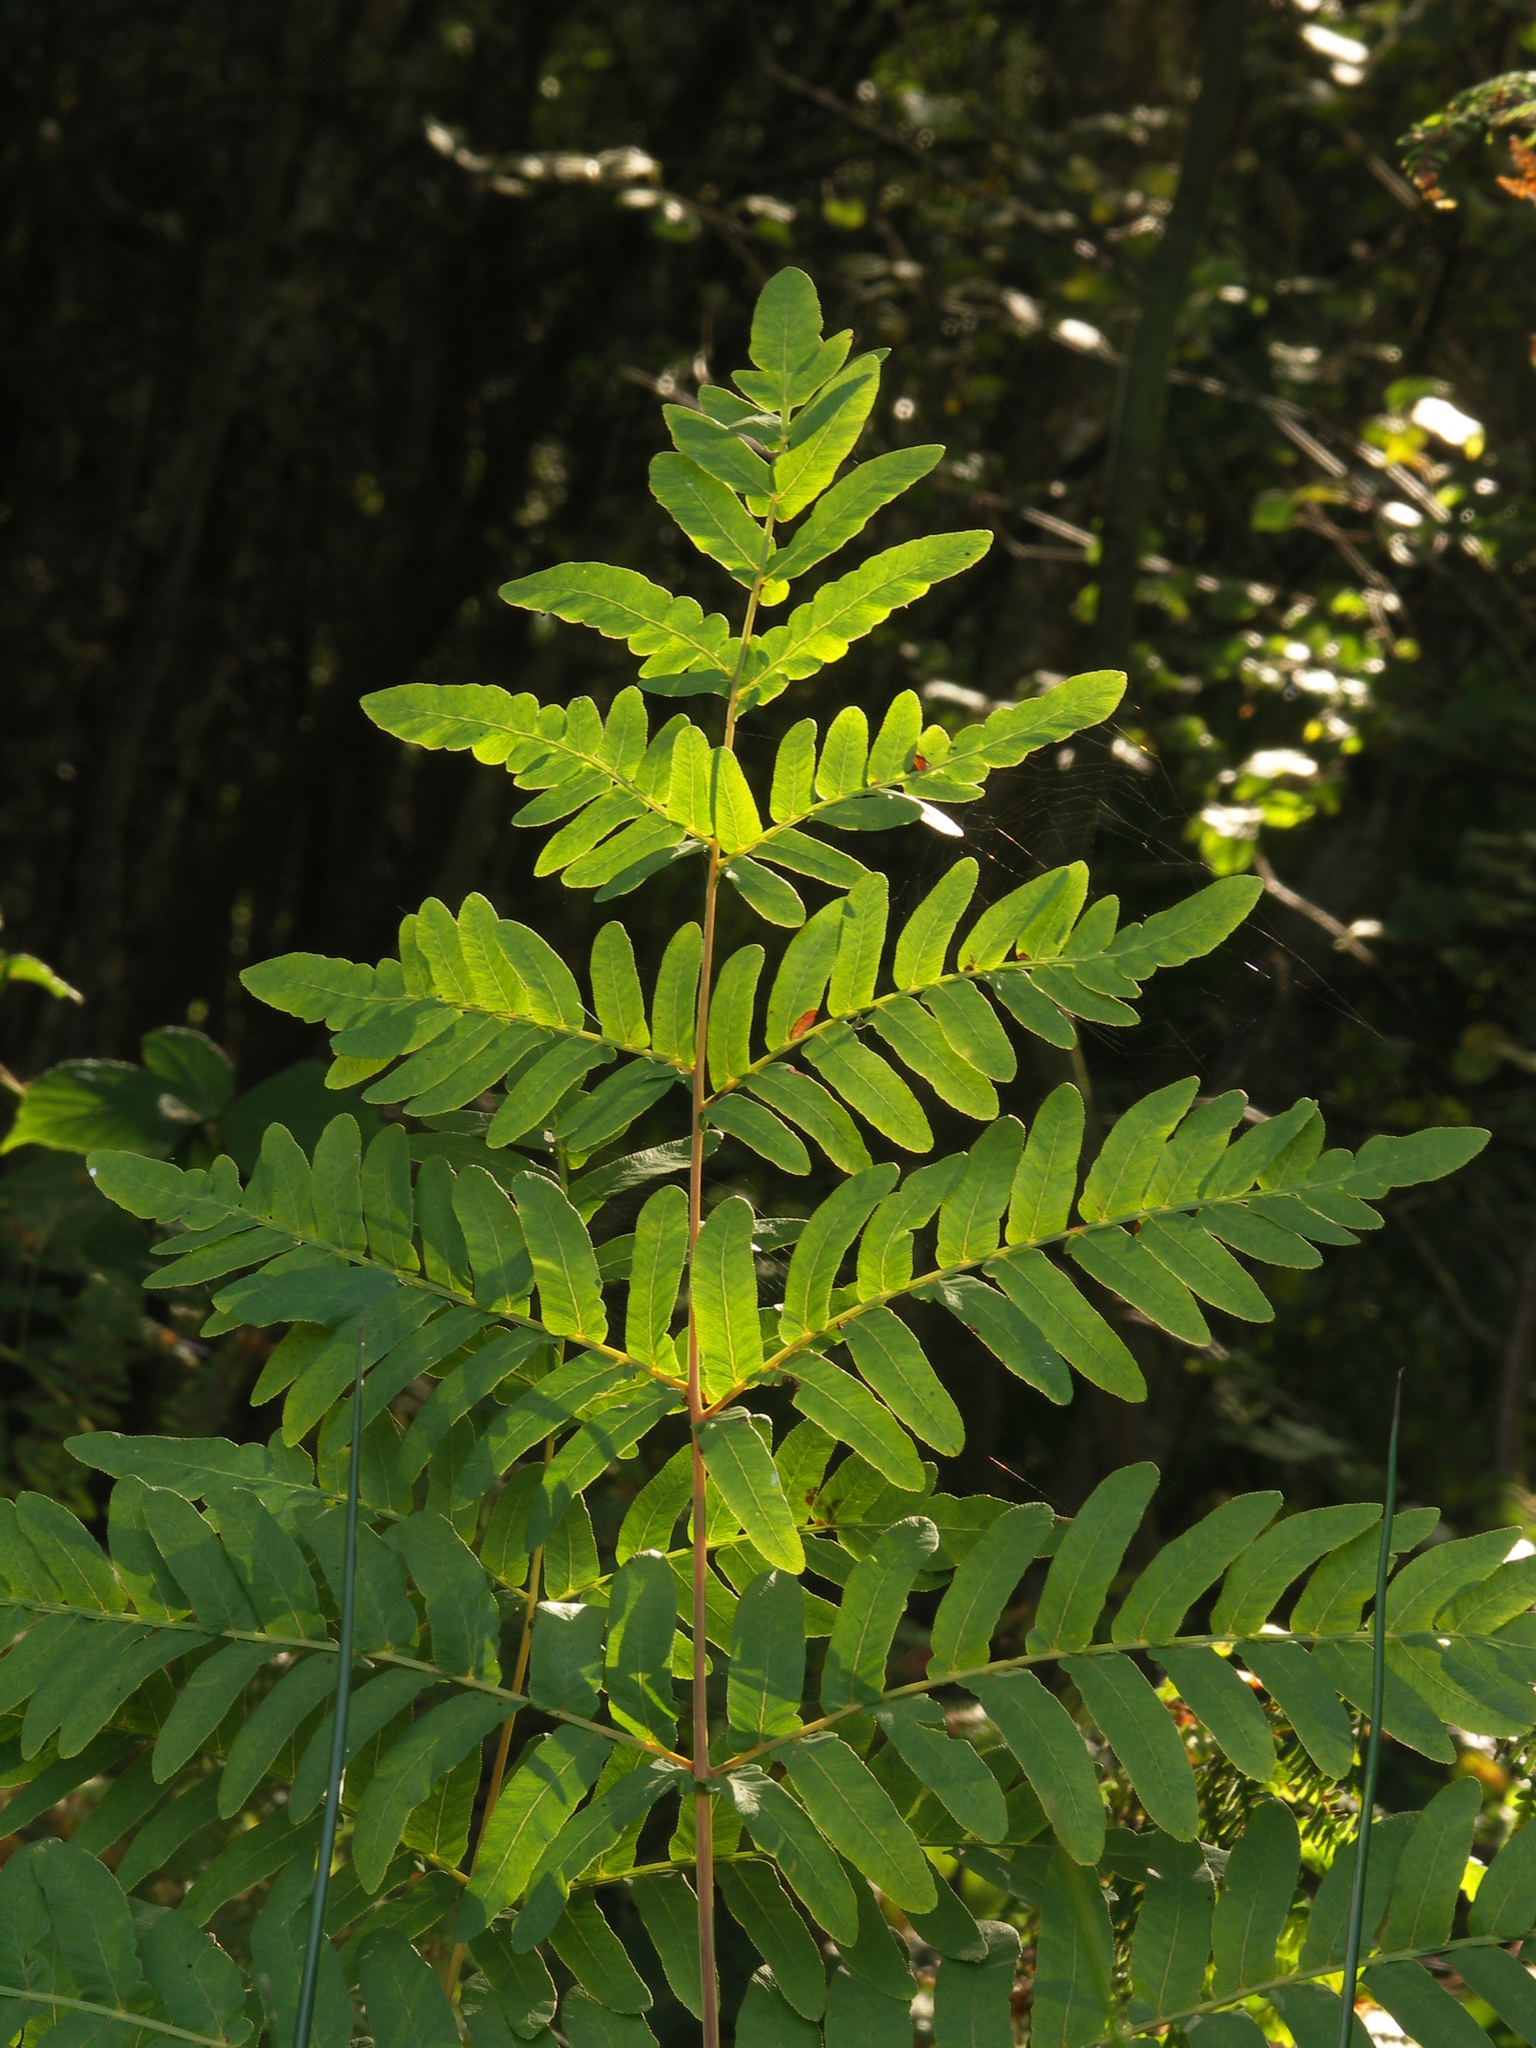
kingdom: Plantae
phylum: Tracheophyta
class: Polypodiopsida
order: Osmundales
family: Osmundaceae
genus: Osmunda
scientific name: Osmunda regalis
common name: Royal fern
